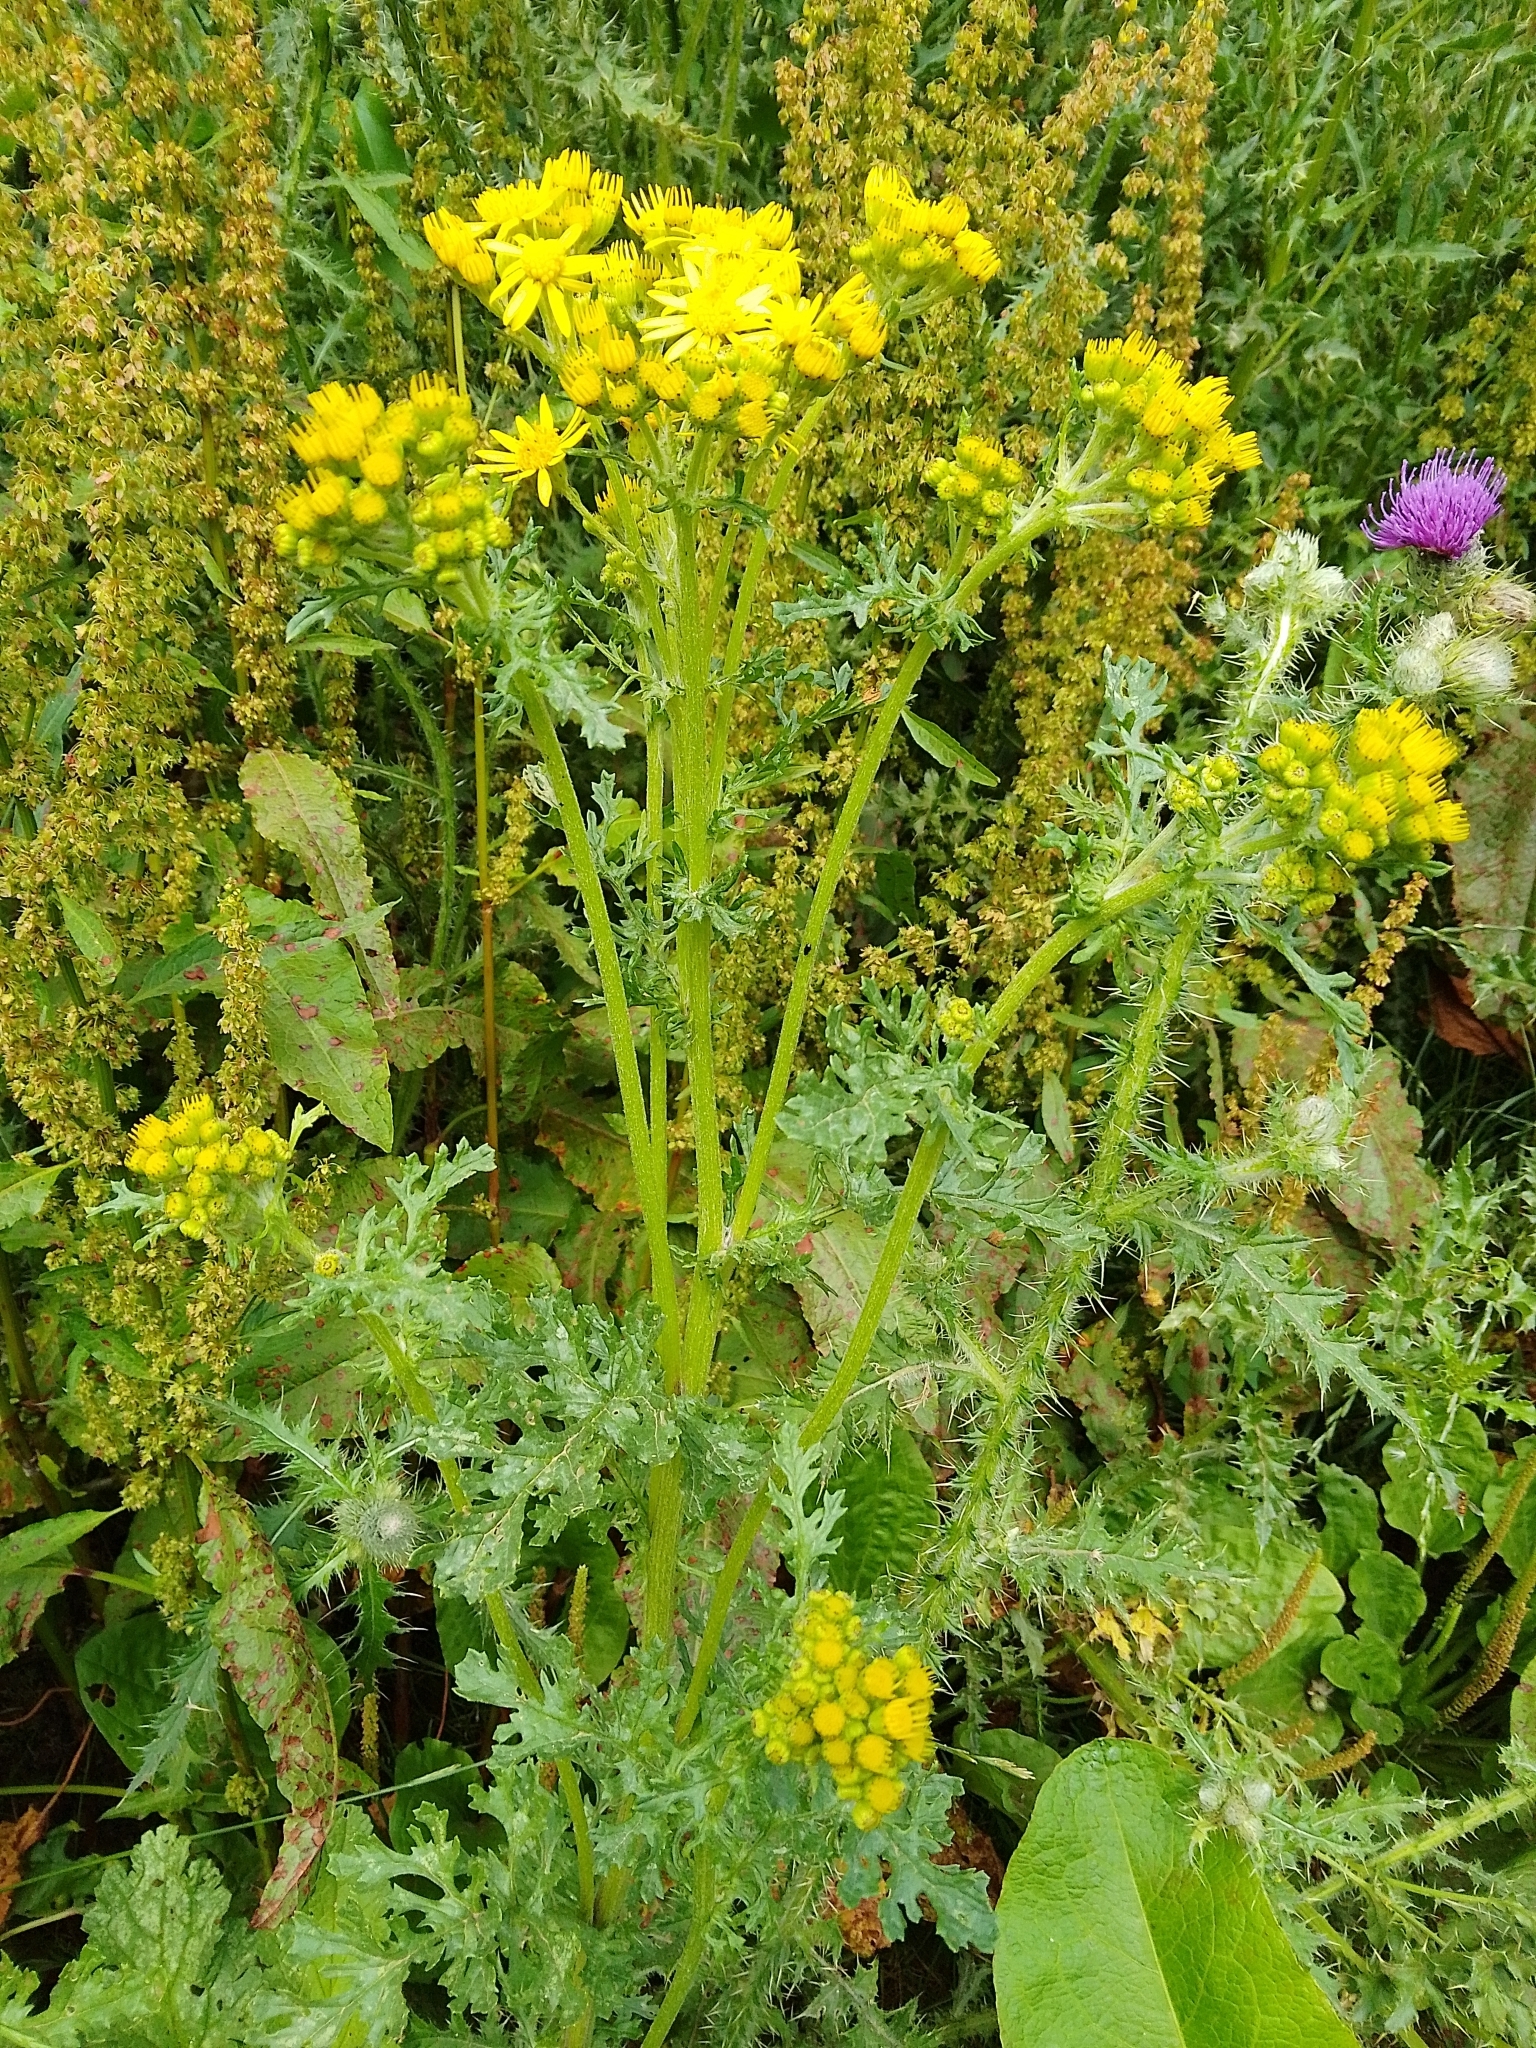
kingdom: Plantae
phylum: Tracheophyta
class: Magnoliopsida
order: Asterales
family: Asteraceae
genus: Jacobaea
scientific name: Jacobaea vulgaris
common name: Stinking willie
